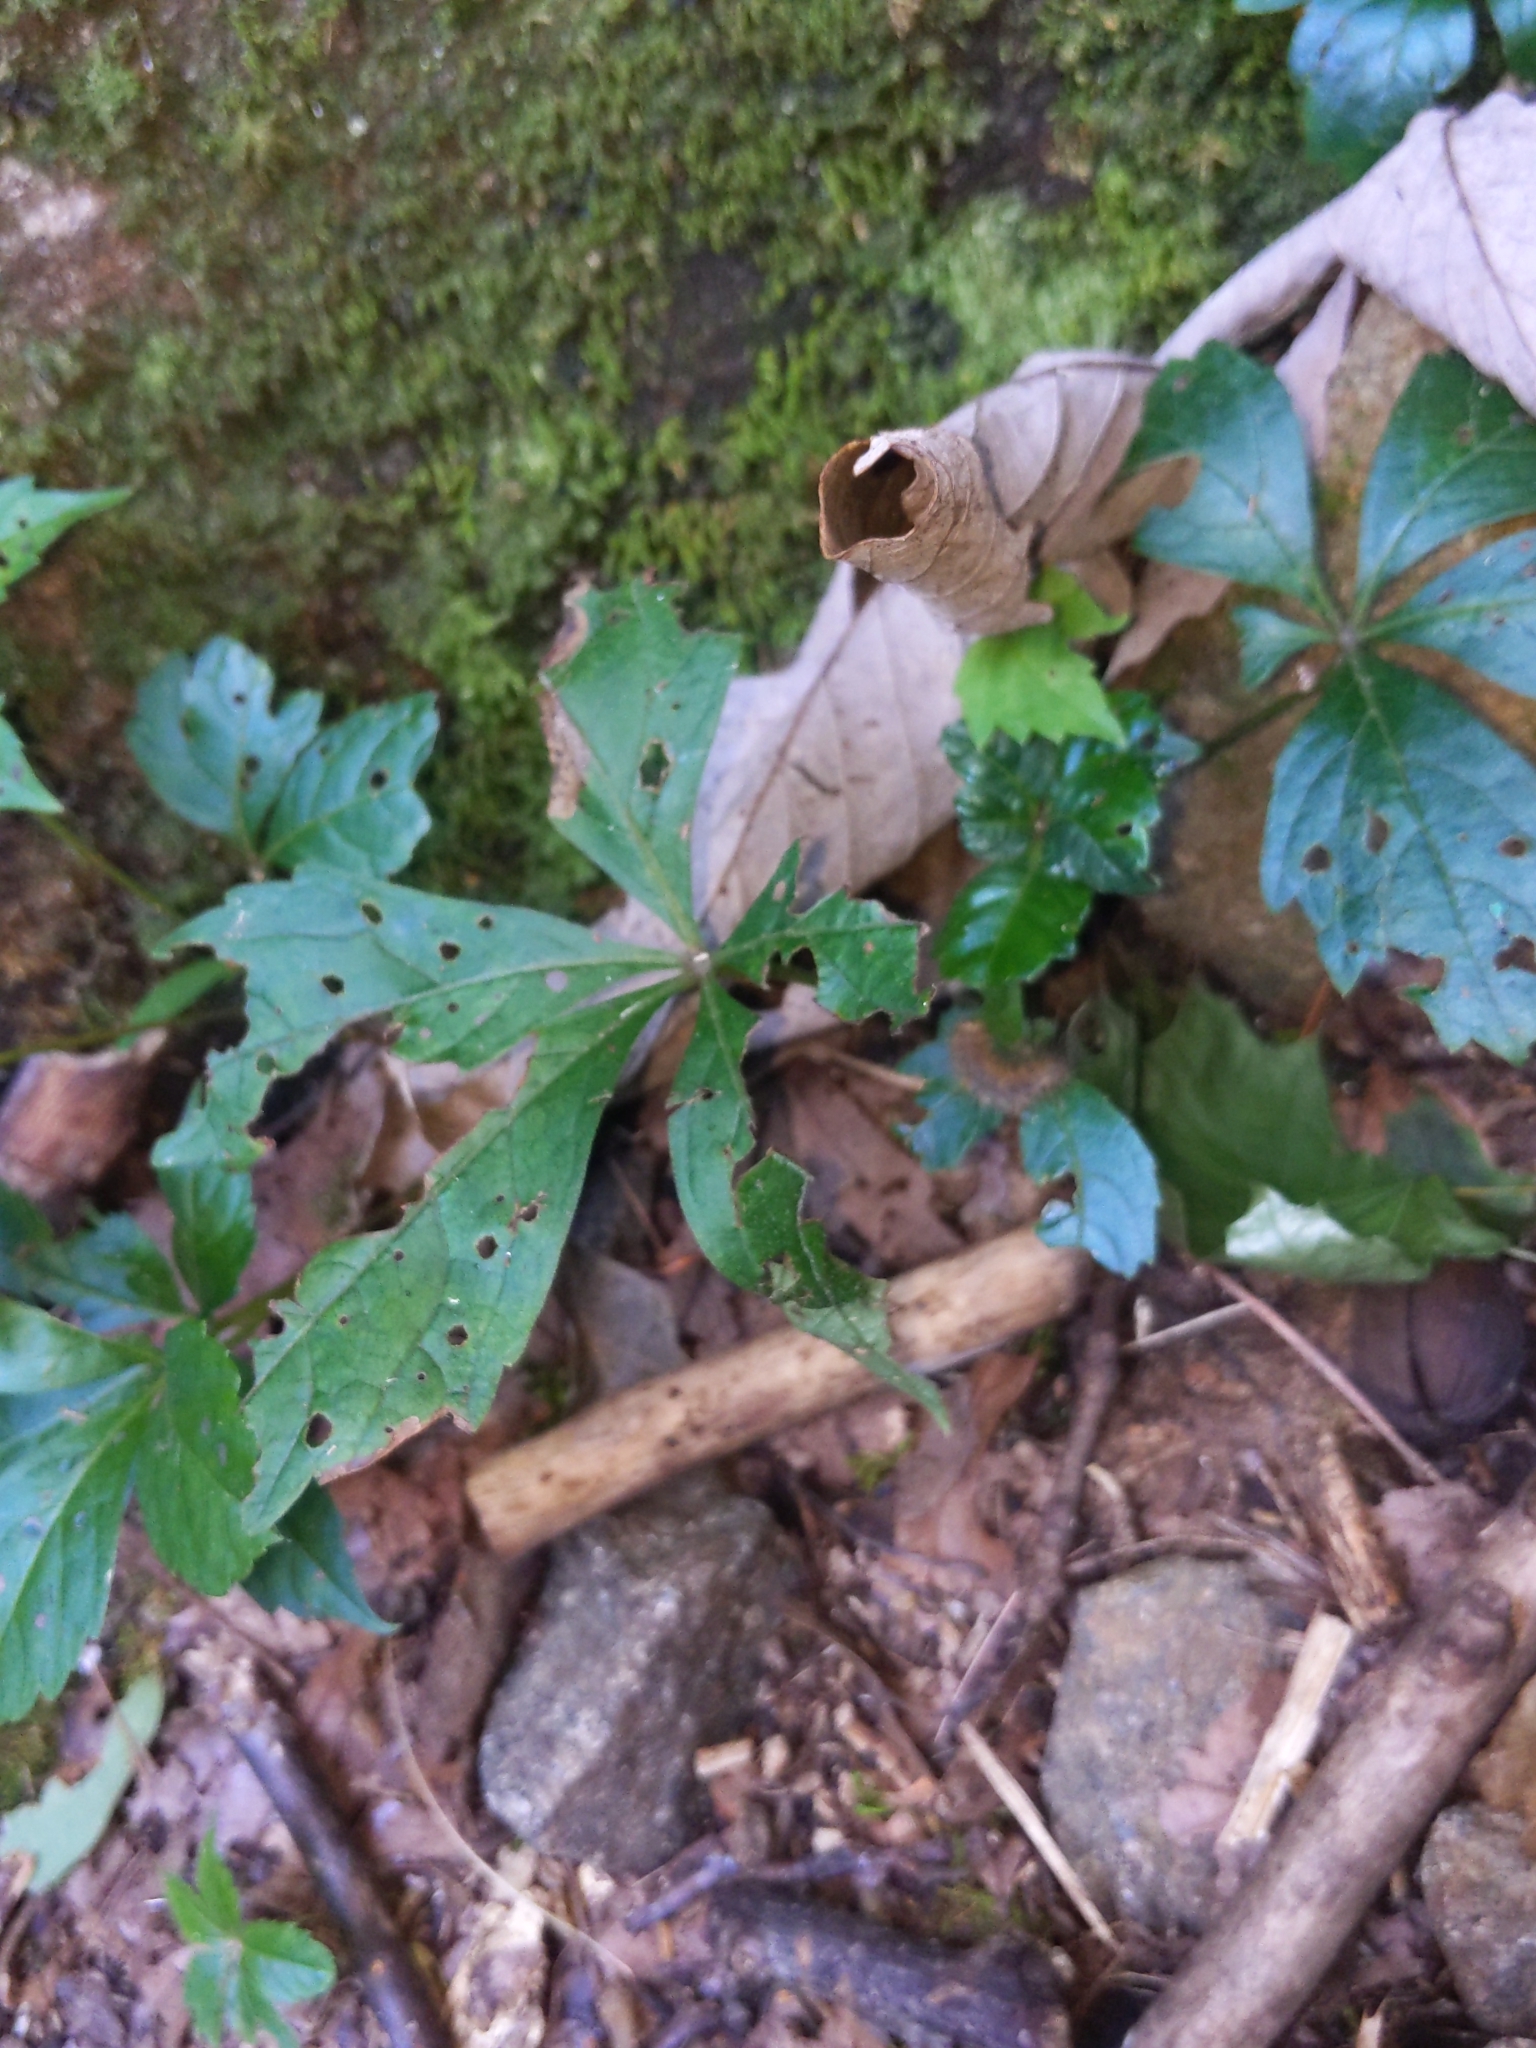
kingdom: Plantae
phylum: Tracheophyta
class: Magnoliopsida
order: Vitales
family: Vitaceae
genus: Parthenocissus
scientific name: Parthenocissus quinquefolia
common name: Virginia-creeper
